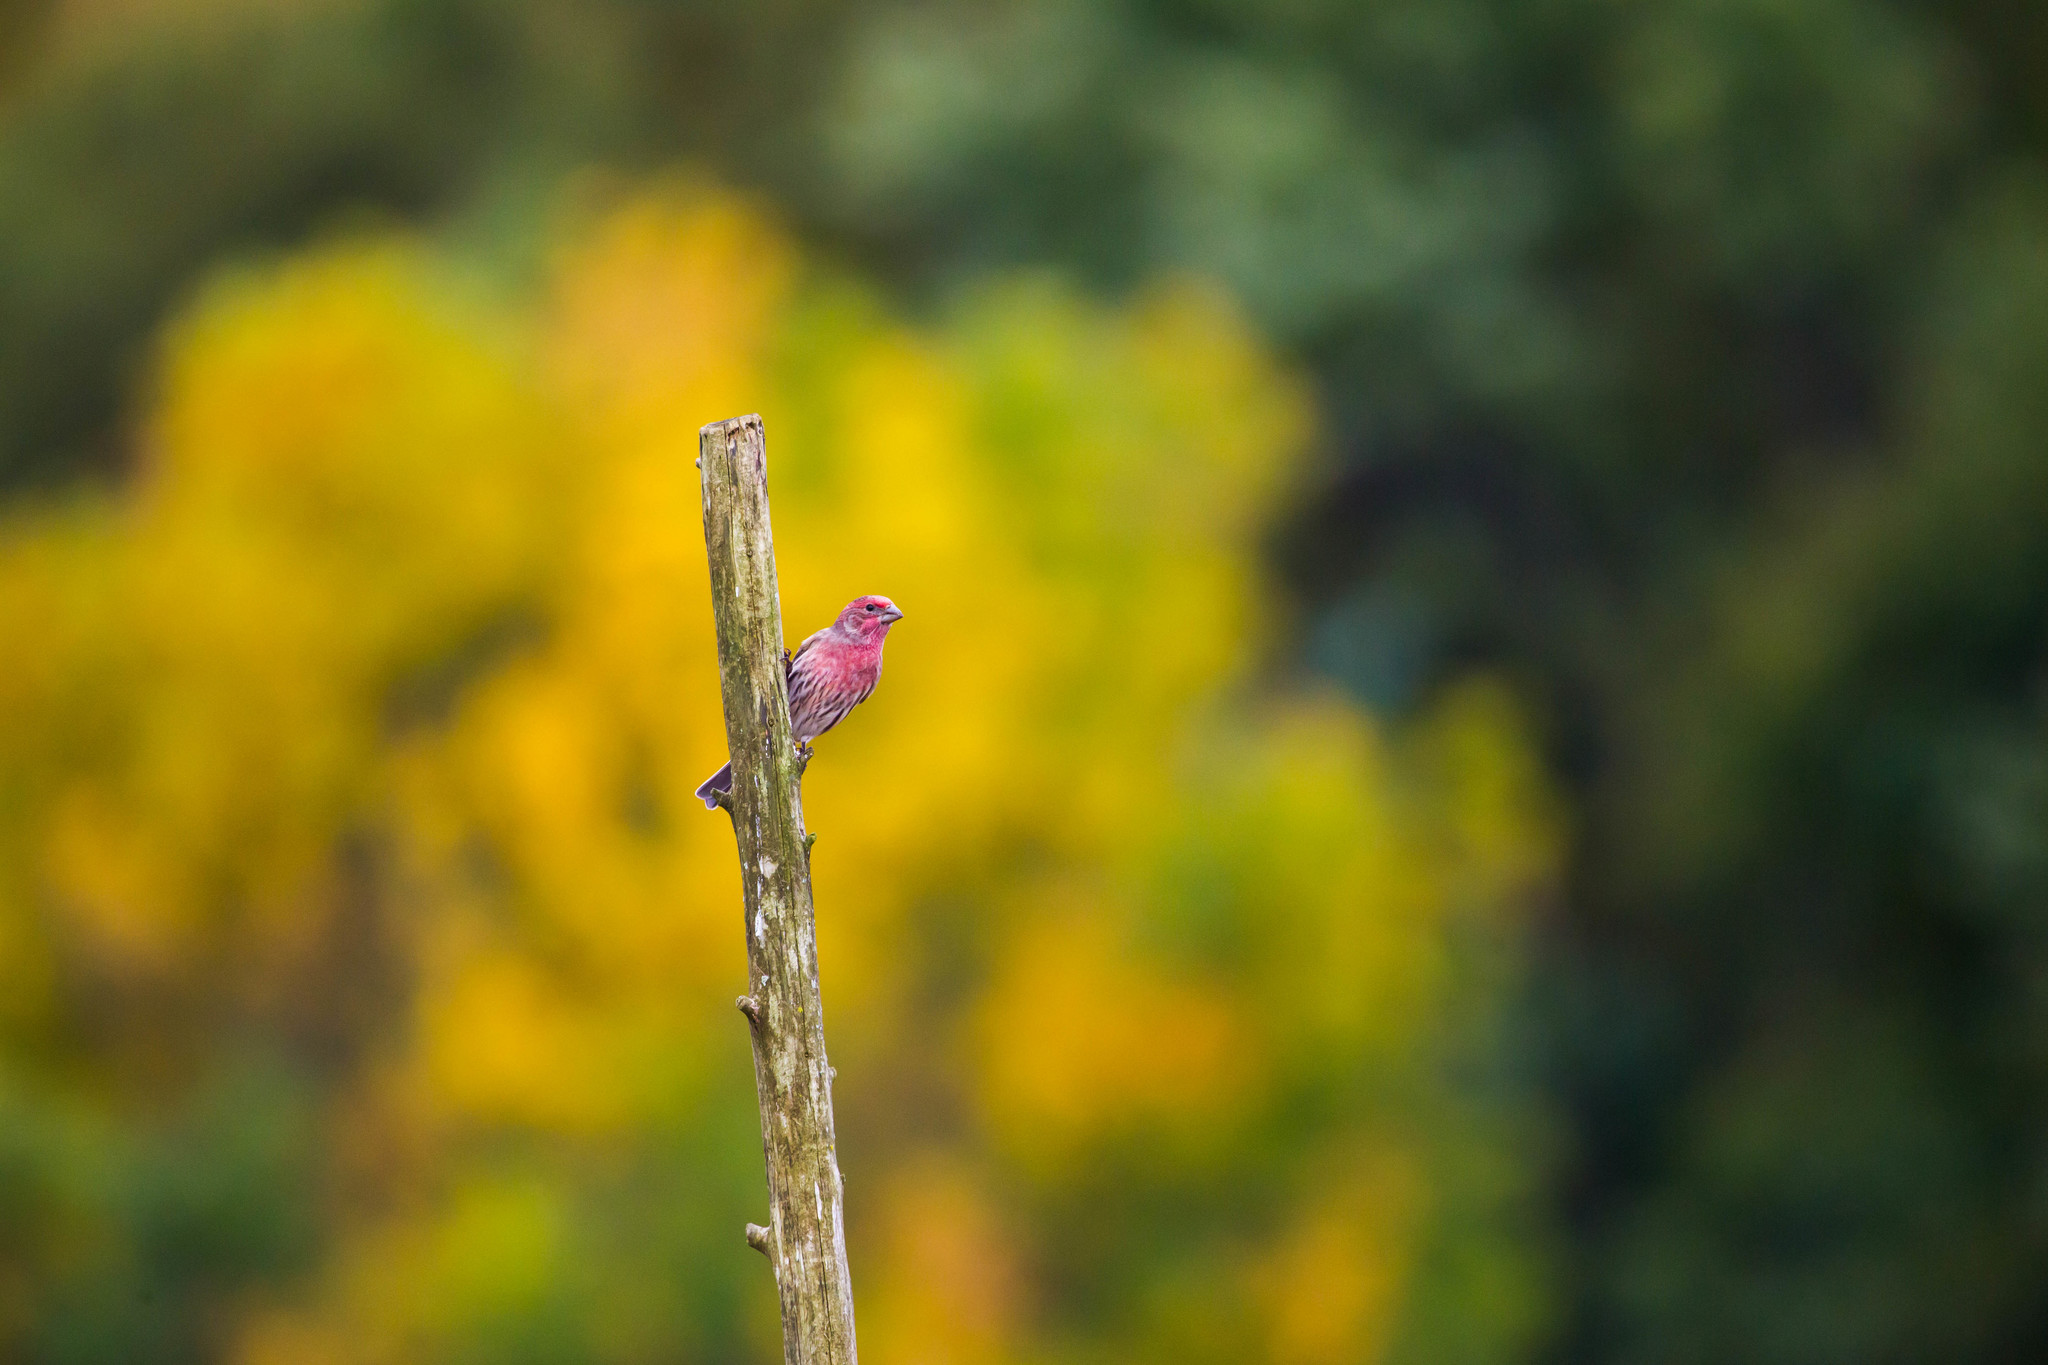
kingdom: Animalia
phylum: Chordata
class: Aves
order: Passeriformes
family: Fringillidae
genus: Haemorhous
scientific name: Haemorhous mexicanus
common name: House finch
